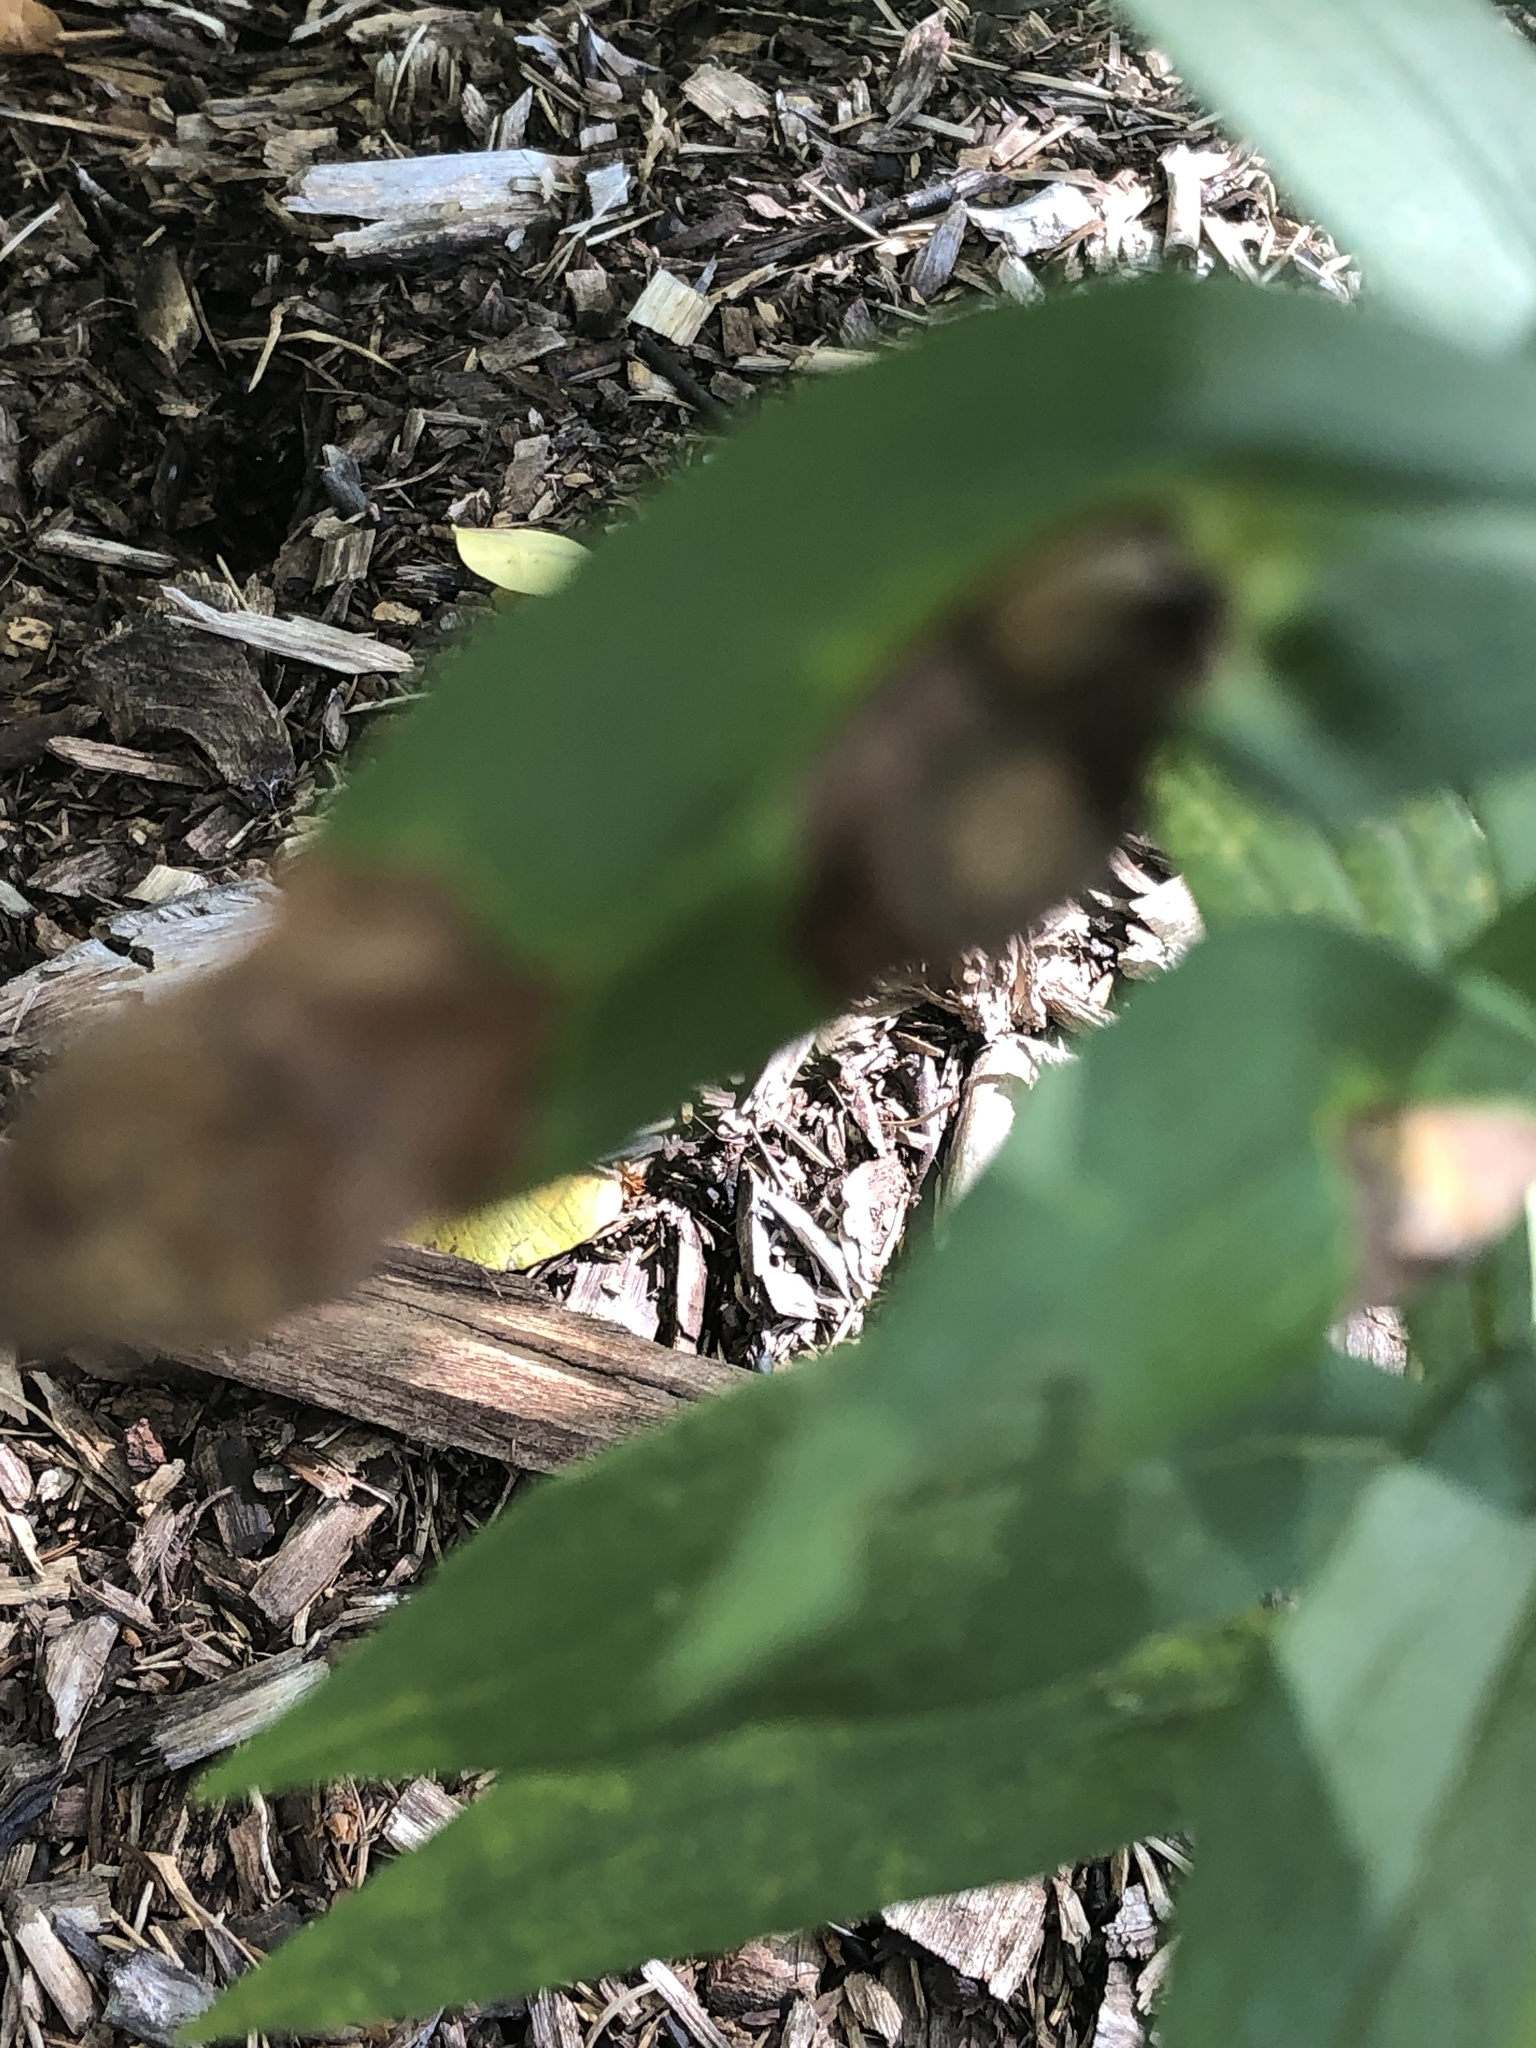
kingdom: Animalia
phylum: Arthropoda
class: Insecta
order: Diptera
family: Cecidomyiidae
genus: Asteromyia
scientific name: Asteromyia carbonifera
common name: Carbonifera goldenrod gall midge
